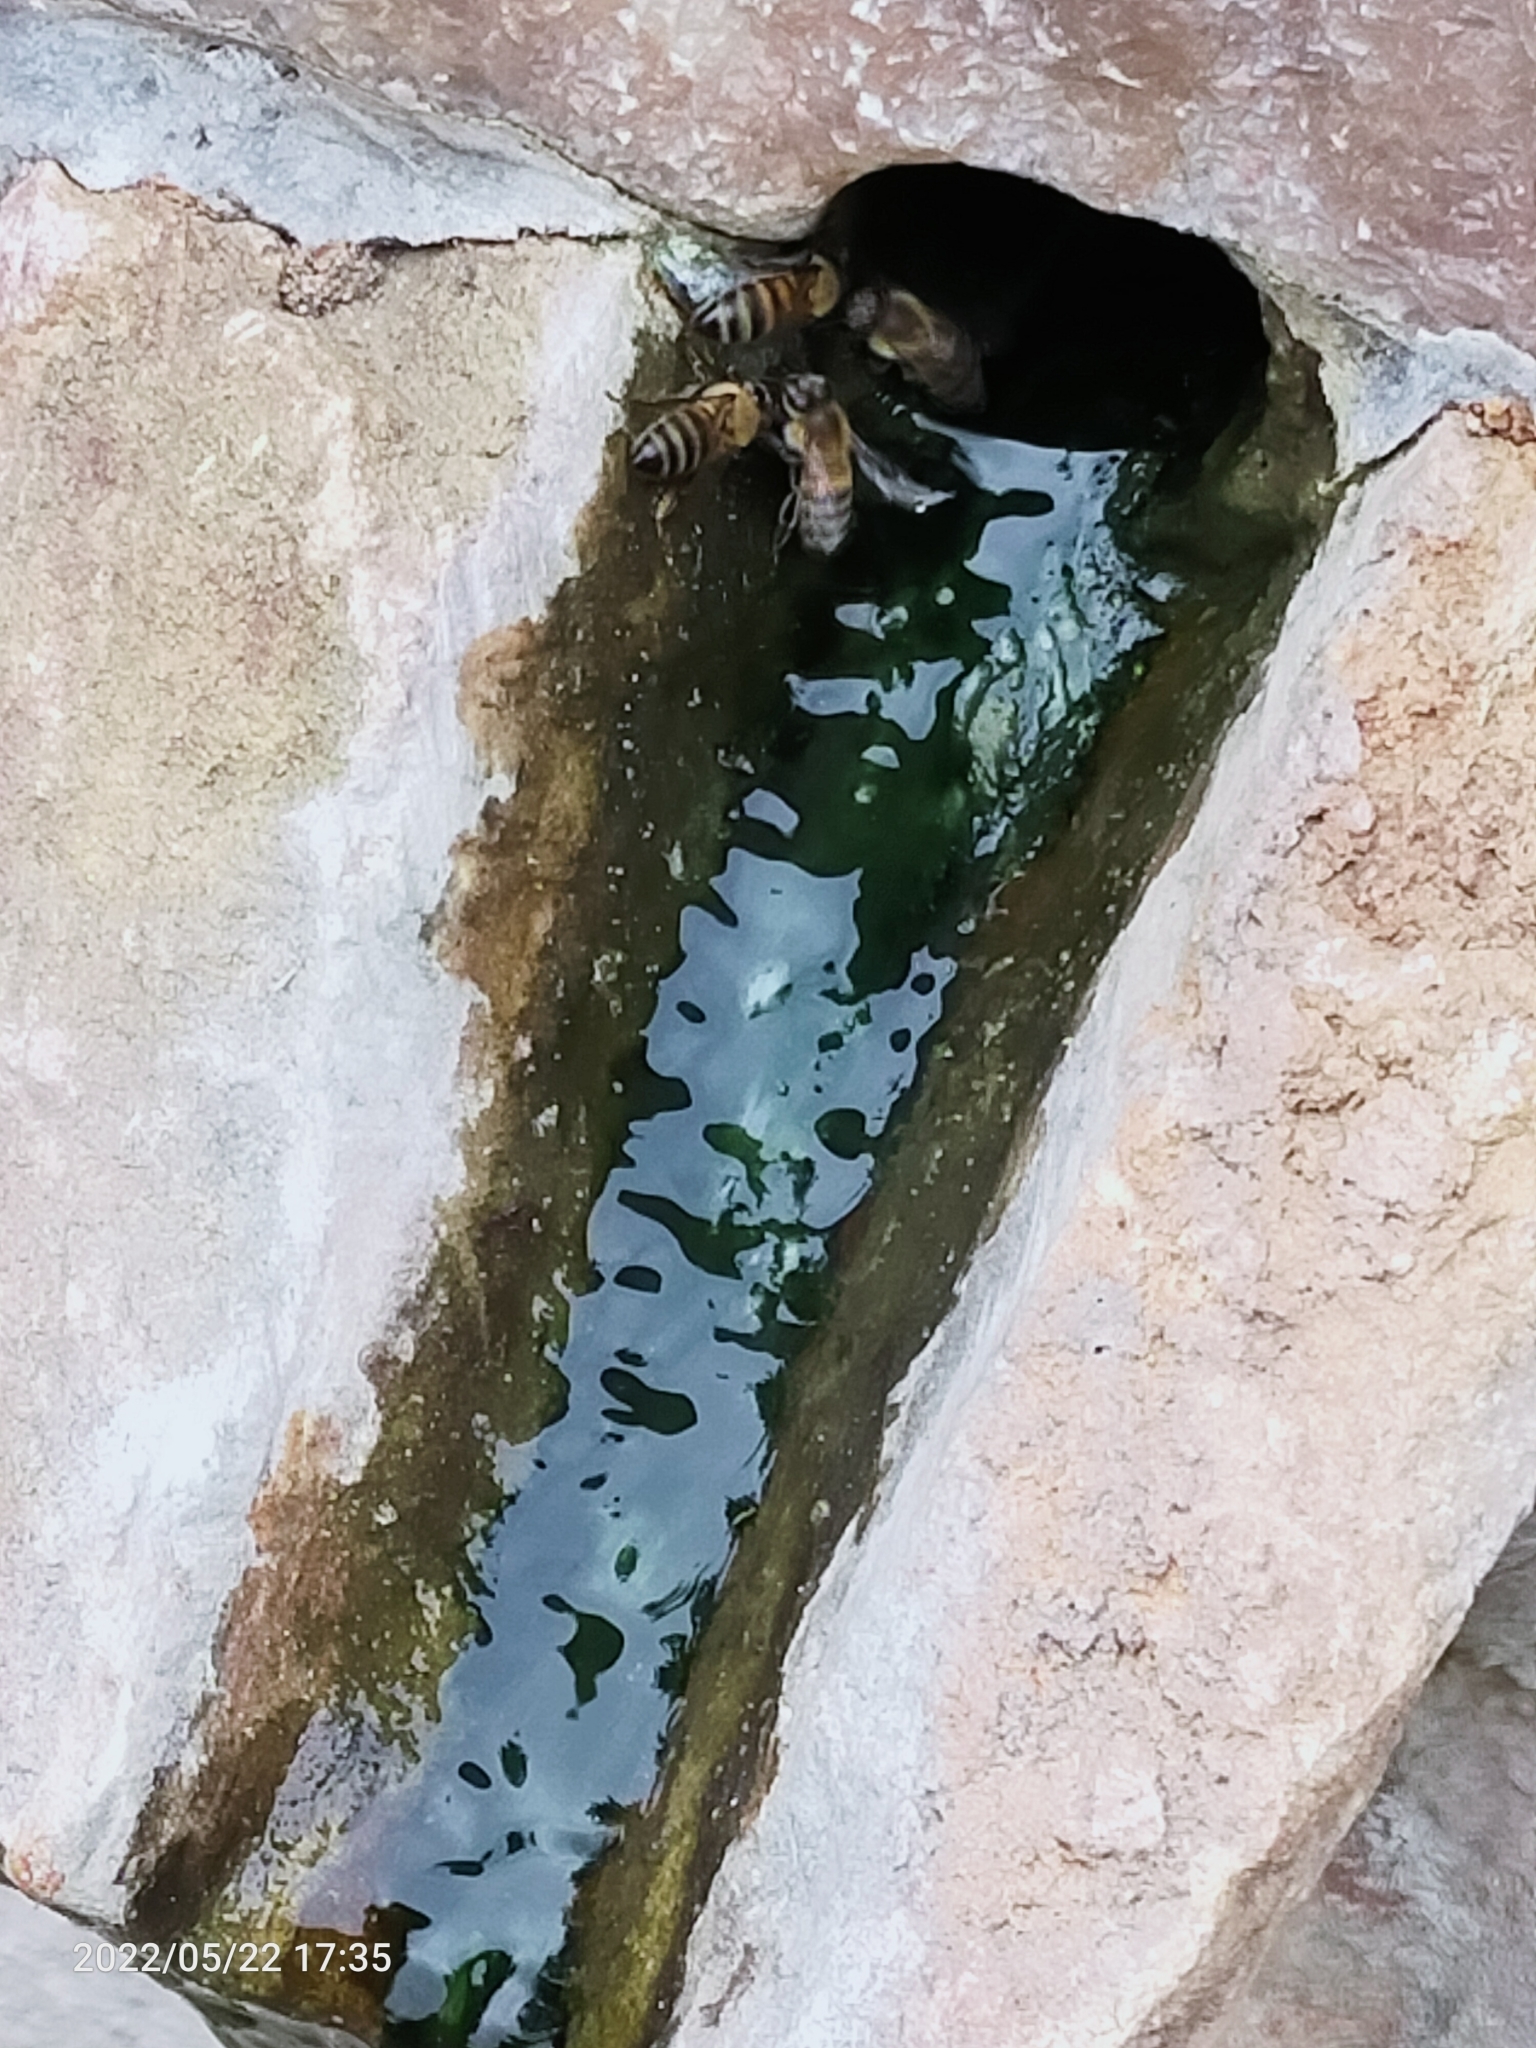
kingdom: Animalia
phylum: Arthropoda
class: Insecta
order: Hymenoptera
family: Apidae
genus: Apis
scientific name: Apis mellifera
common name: Honey bee
